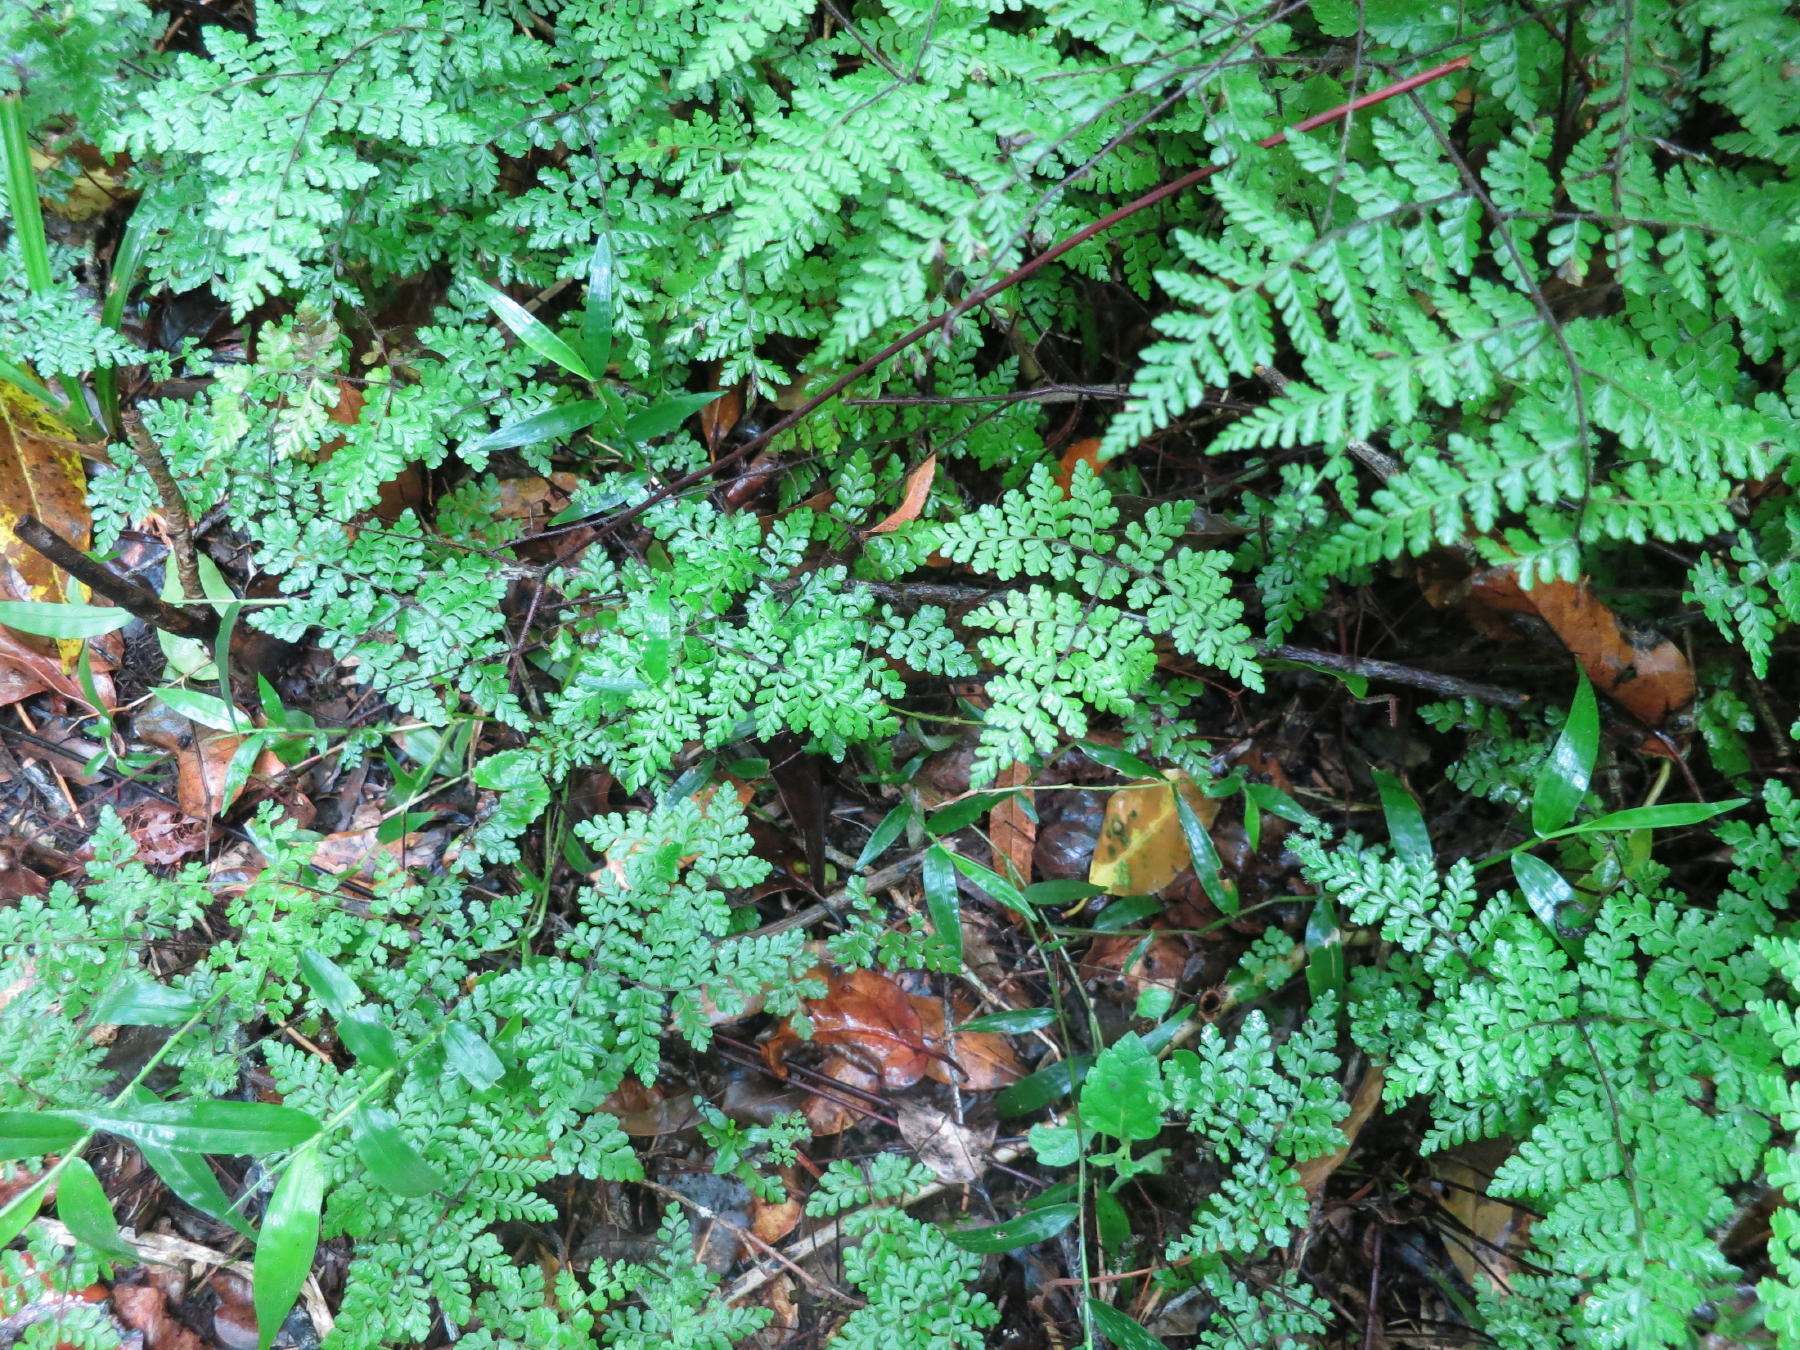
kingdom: Plantae
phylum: Tracheophyta
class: Polypodiopsida
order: Polypodiales
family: Pteridaceae
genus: Cheilanthes
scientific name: Cheilanthes bergiana
